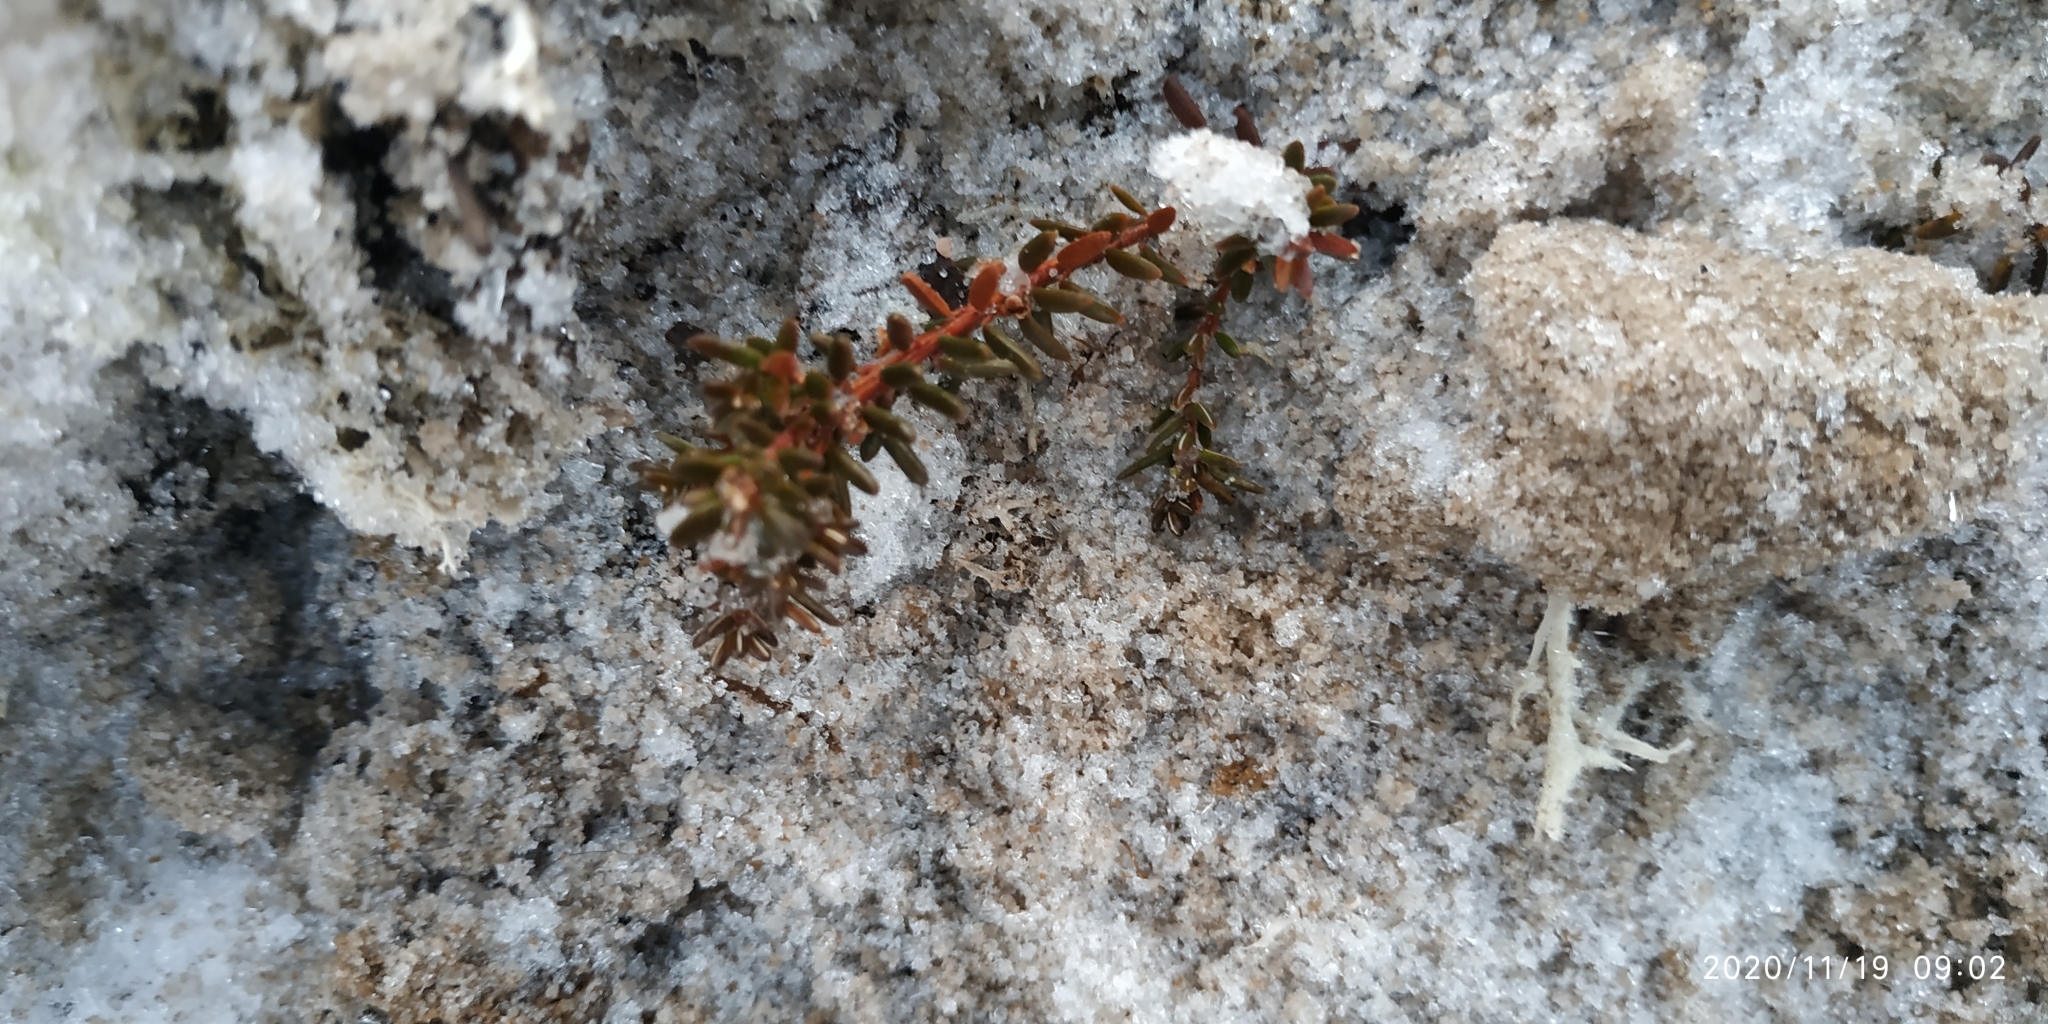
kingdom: Plantae
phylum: Tracheophyta
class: Magnoliopsida
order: Ericales
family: Ericaceae
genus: Empetrum
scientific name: Empetrum nigrum
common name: Black crowberry
